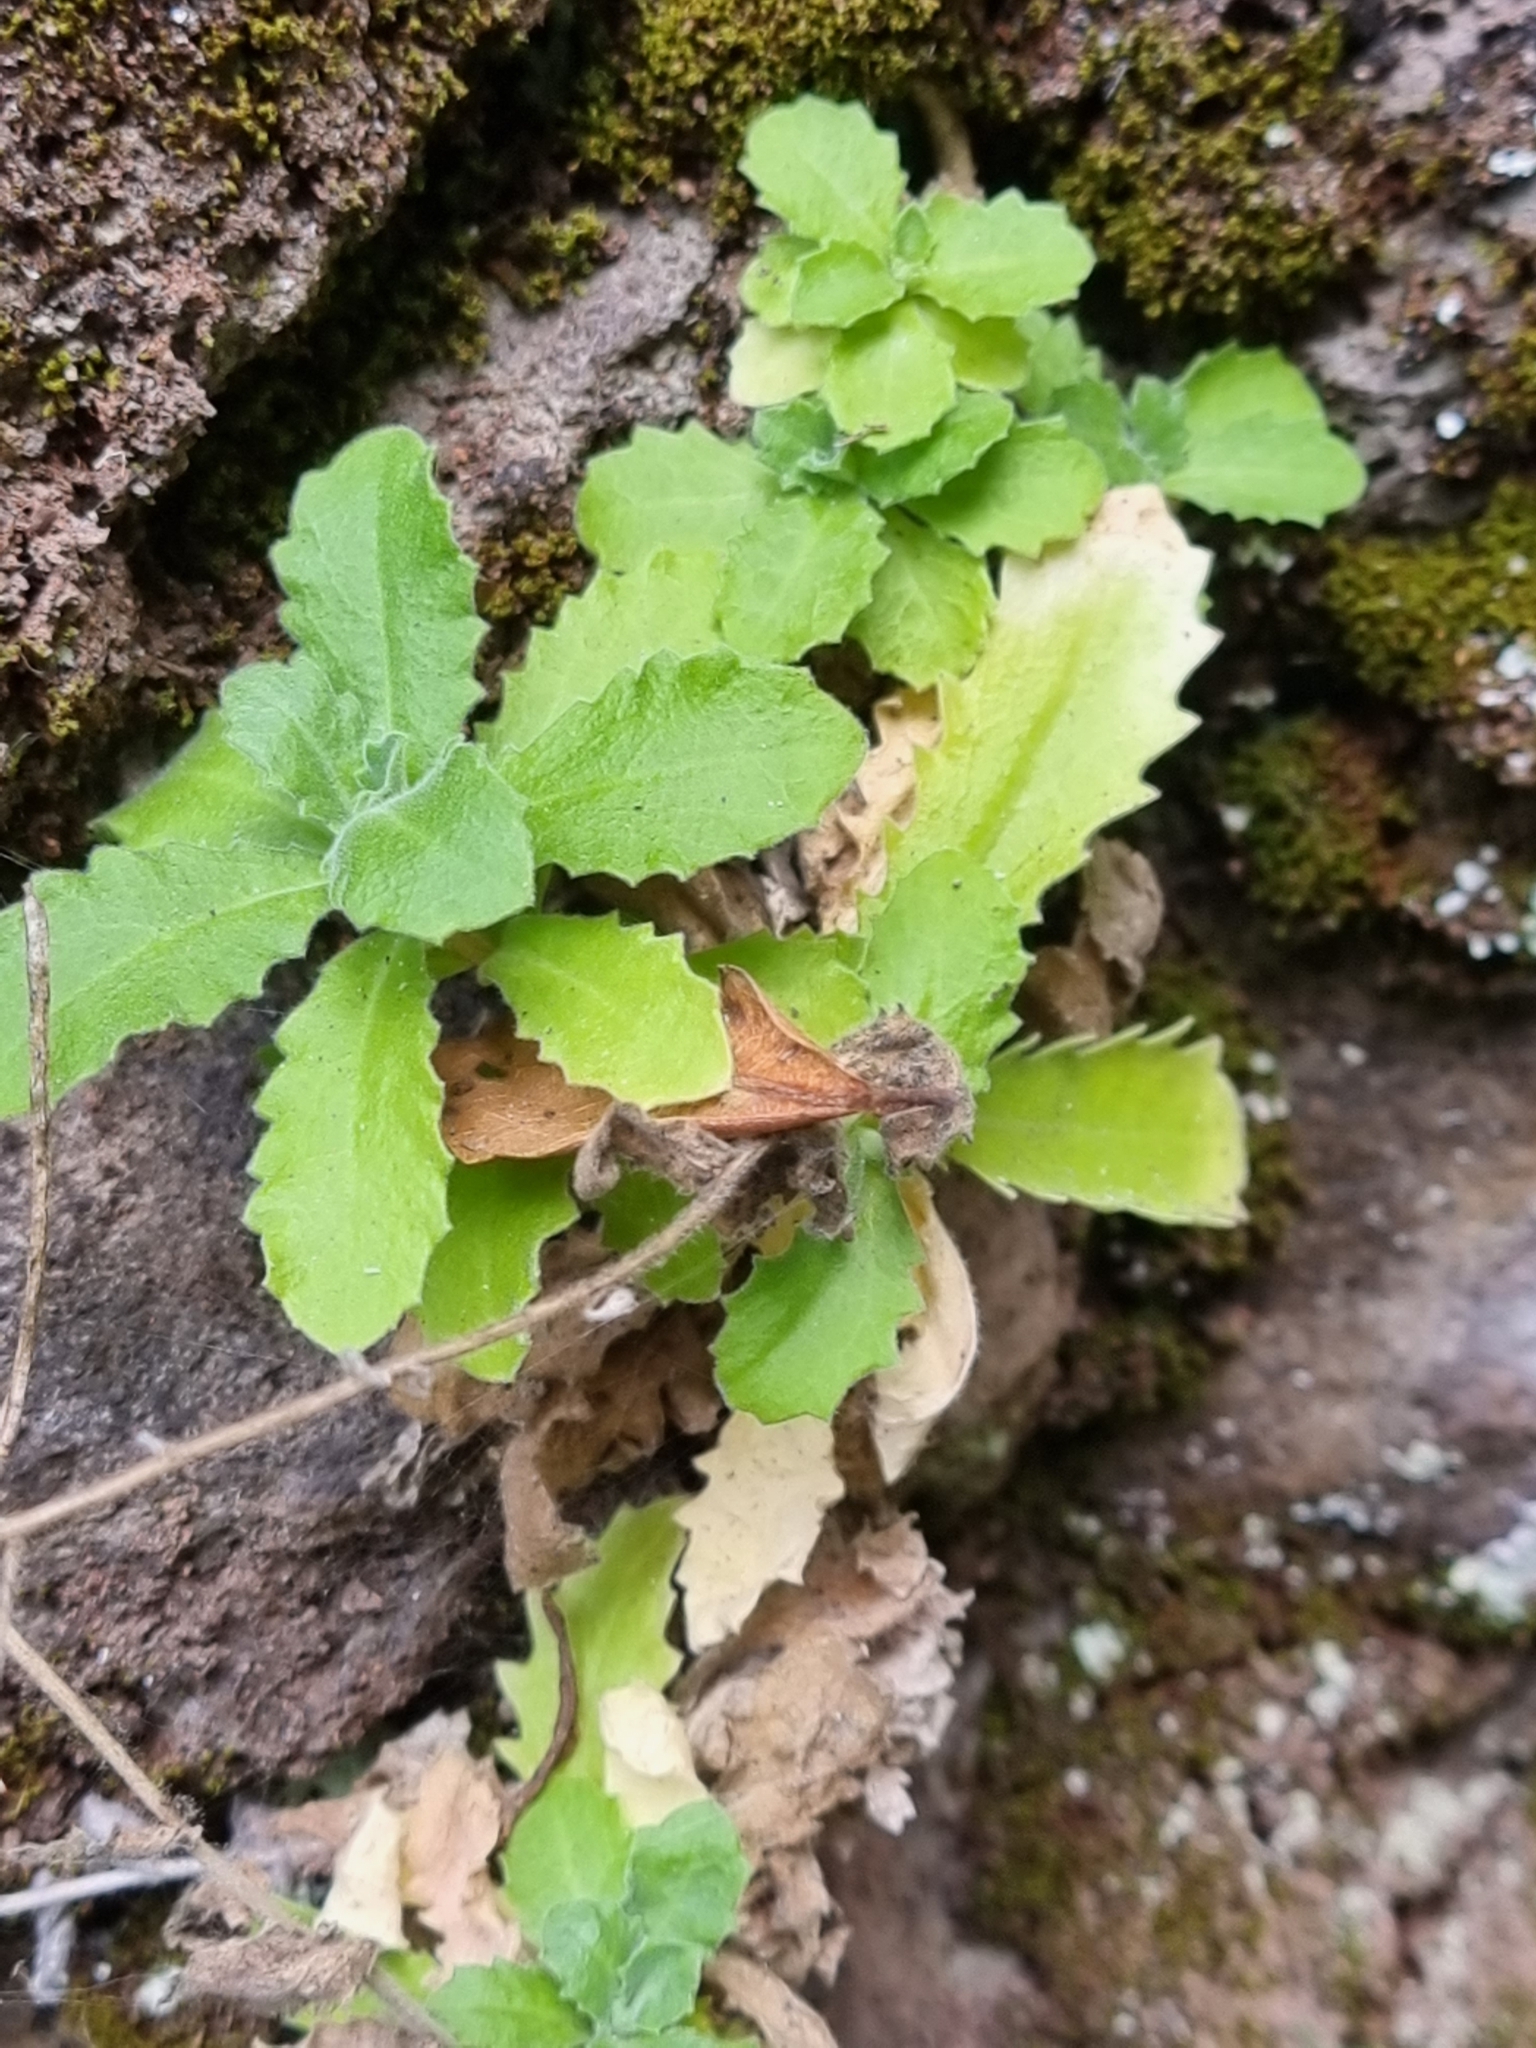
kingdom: Plantae
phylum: Tracheophyta
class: Magnoliopsida
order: Brassicales
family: Brassicaceae
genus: Arabis
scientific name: Arabis caucasica
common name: Gray rockcress
